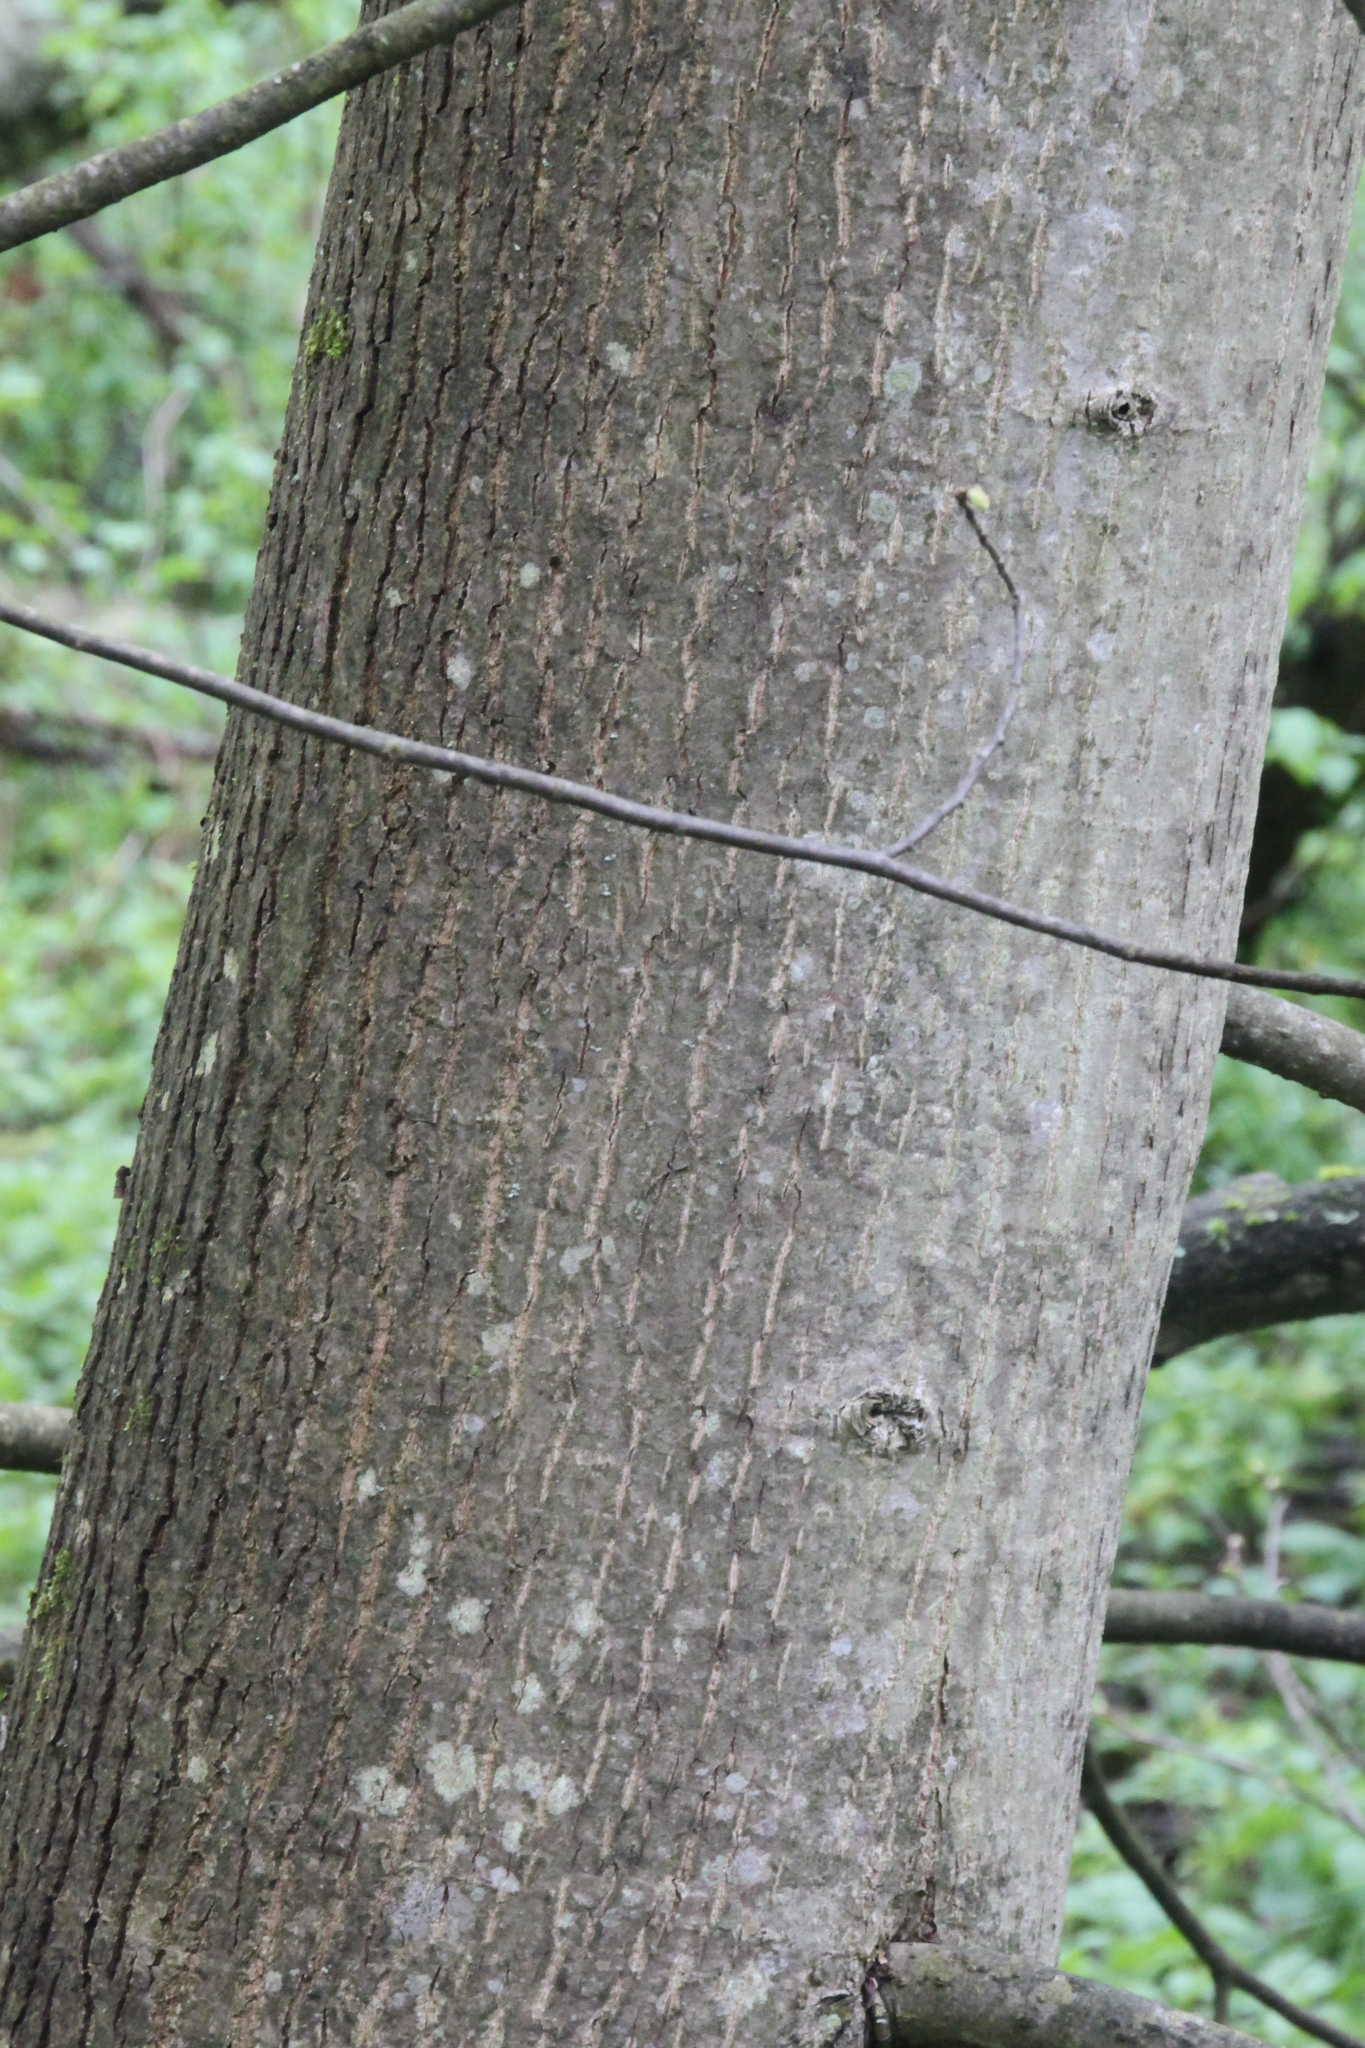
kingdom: Plantae
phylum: Tracheophyta
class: Magnoliopsida
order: Malvales
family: Malvaceae
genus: Tilia
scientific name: Tilia cordata
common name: Small-leaved lime
